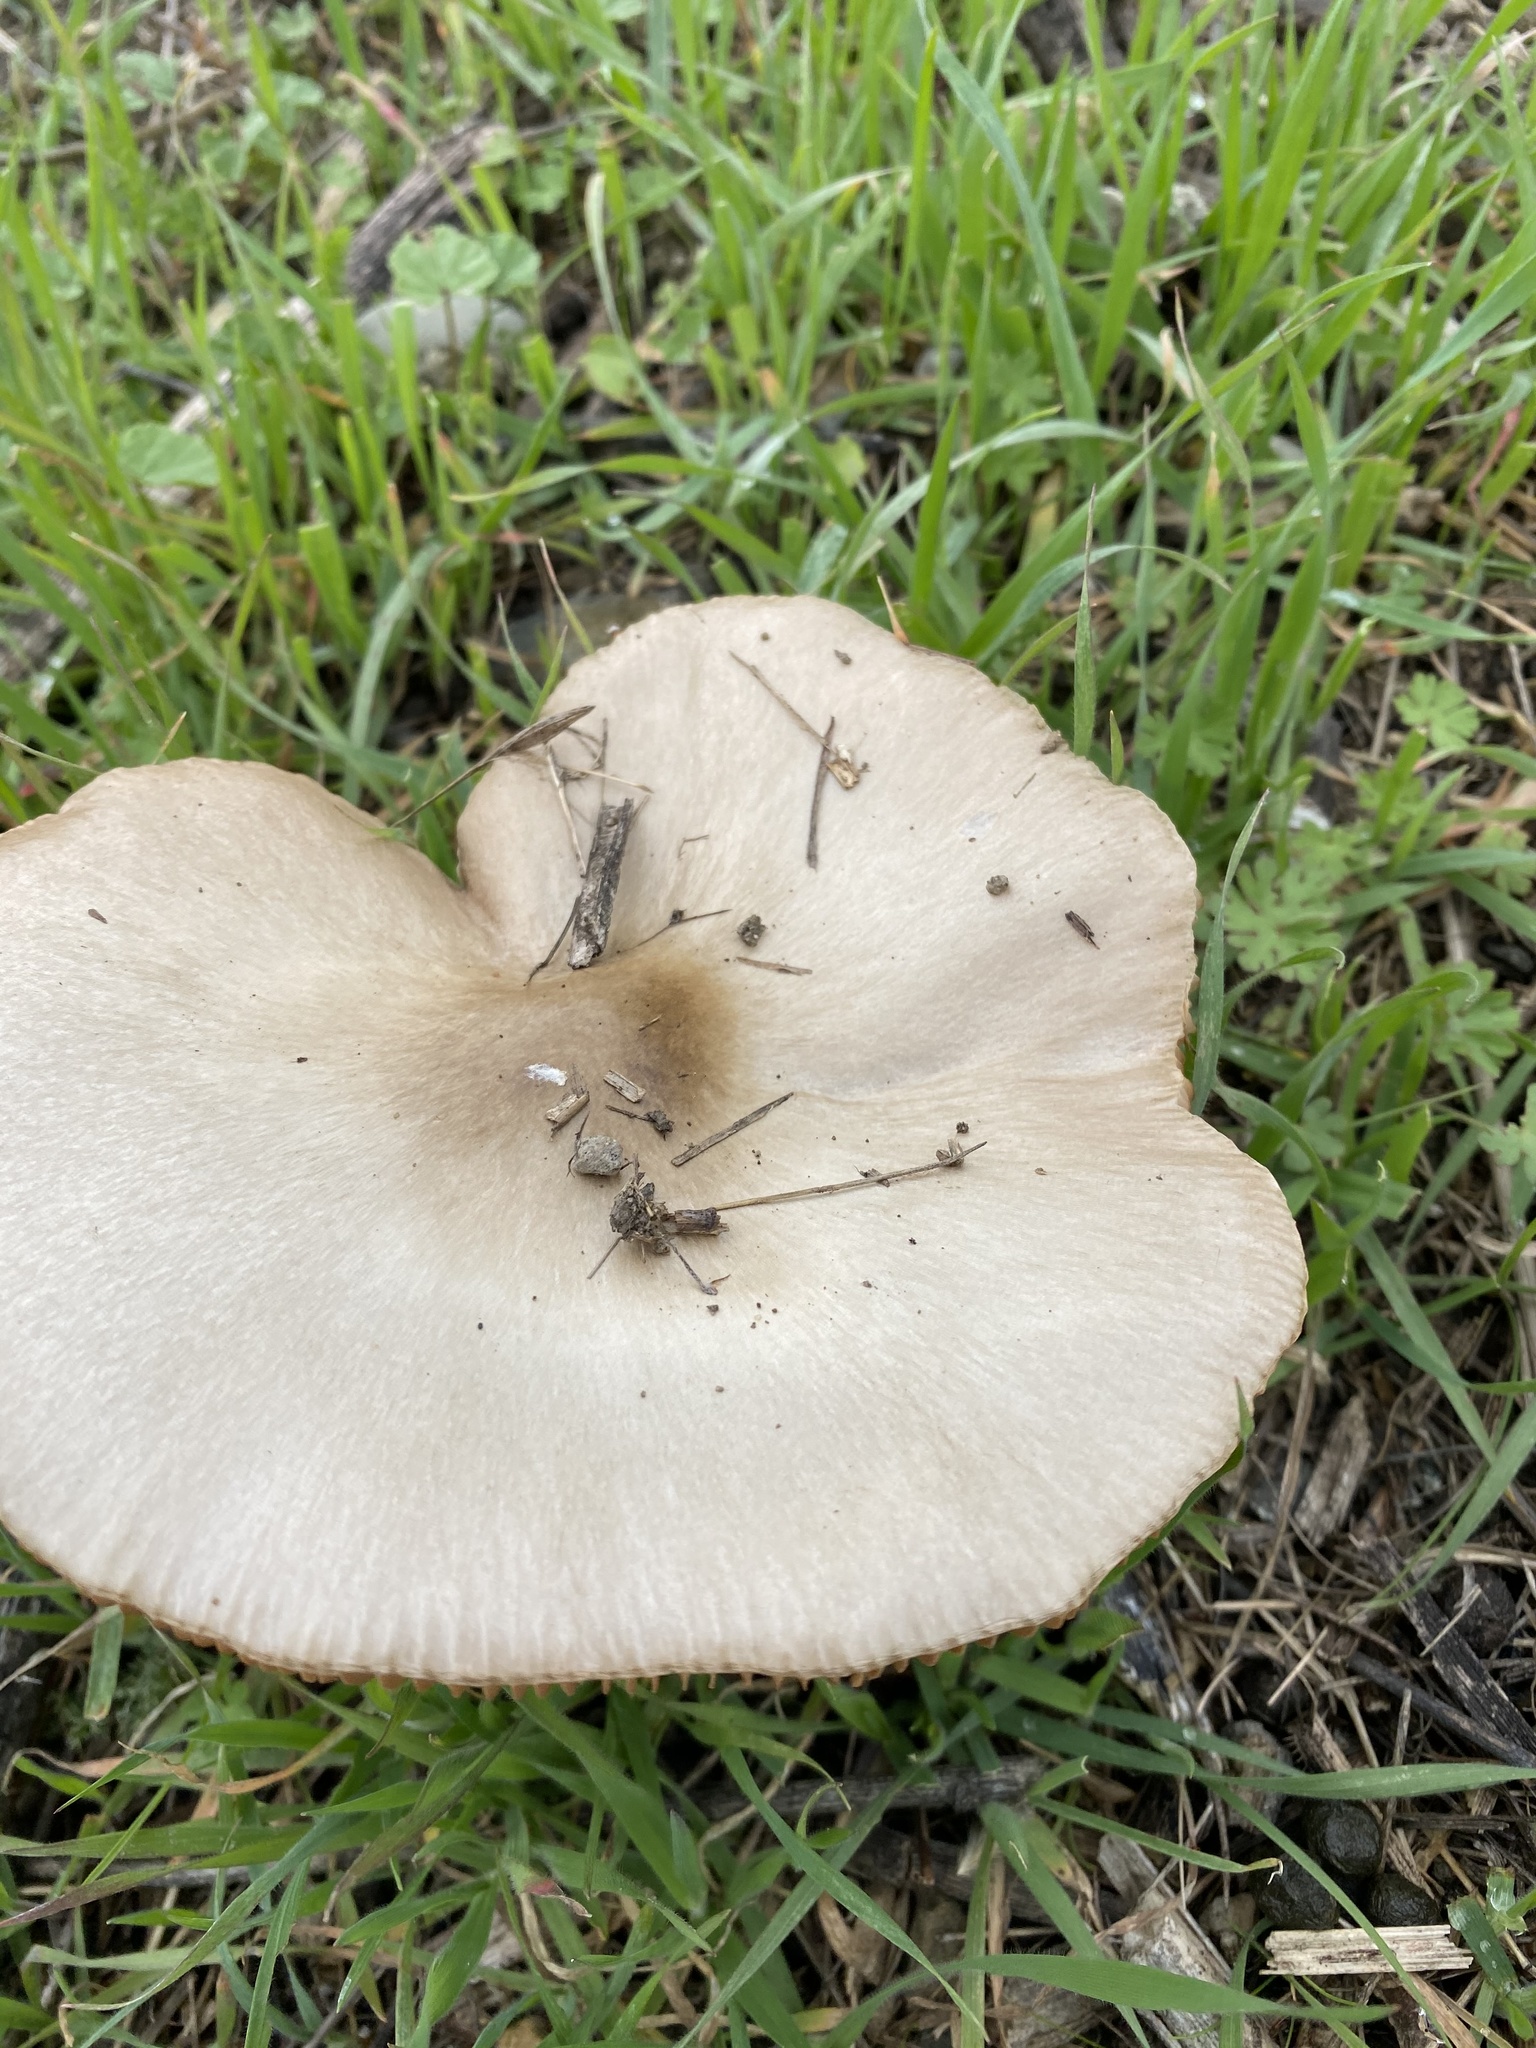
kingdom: Fungi
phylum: Basidiomycota
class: Agaricomycetes
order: Agaricales
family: Pluteaceae
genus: Volvopluteus
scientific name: Volvopluteus gloiocephalus
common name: Stubble rosegill
